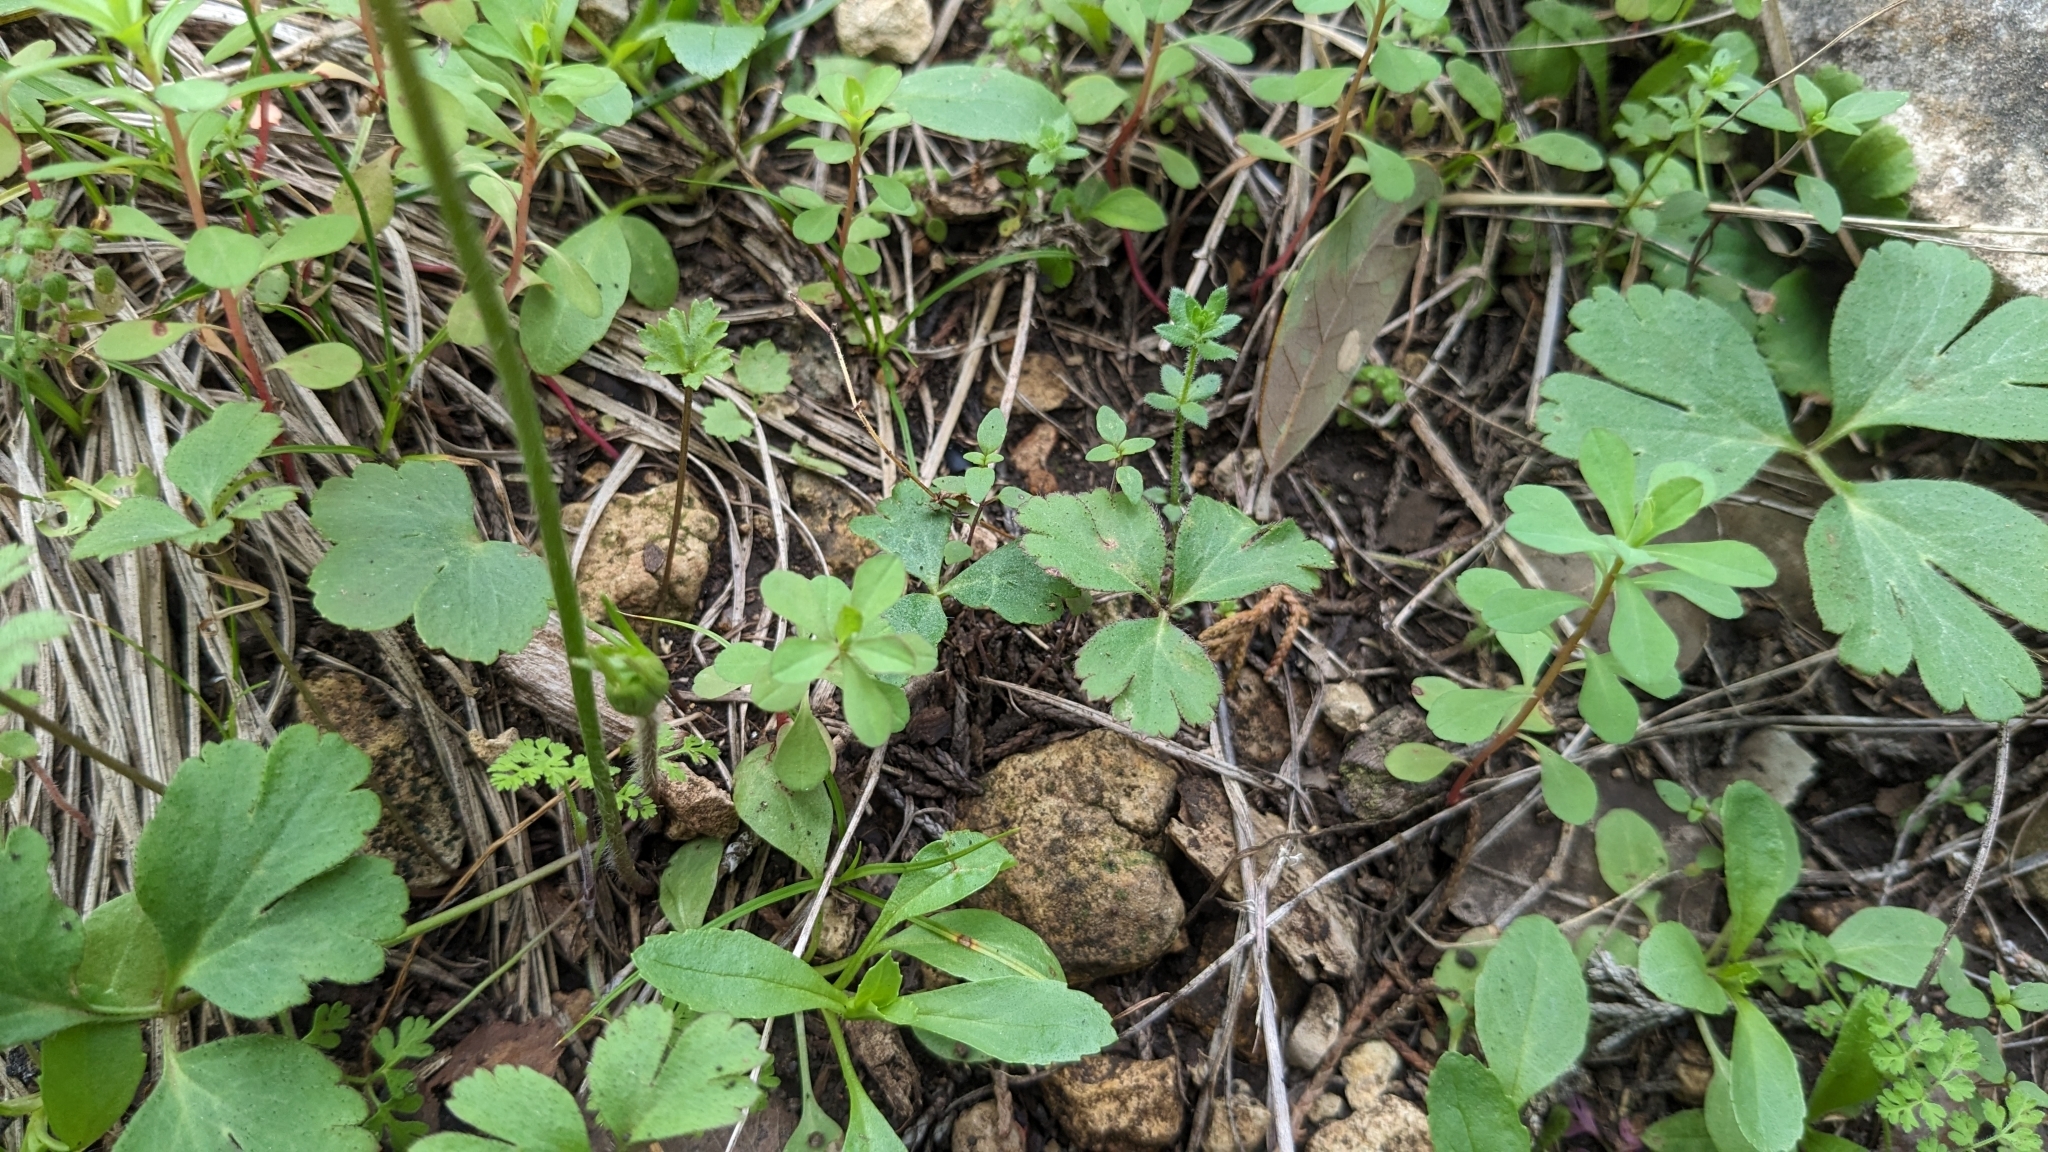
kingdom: Plantae
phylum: Tracheophyta
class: Magnoliopsida
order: Ranunculales
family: Ranunculaceae
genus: Anemone
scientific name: Anemone berlandieri
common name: Ten-petal anemone
